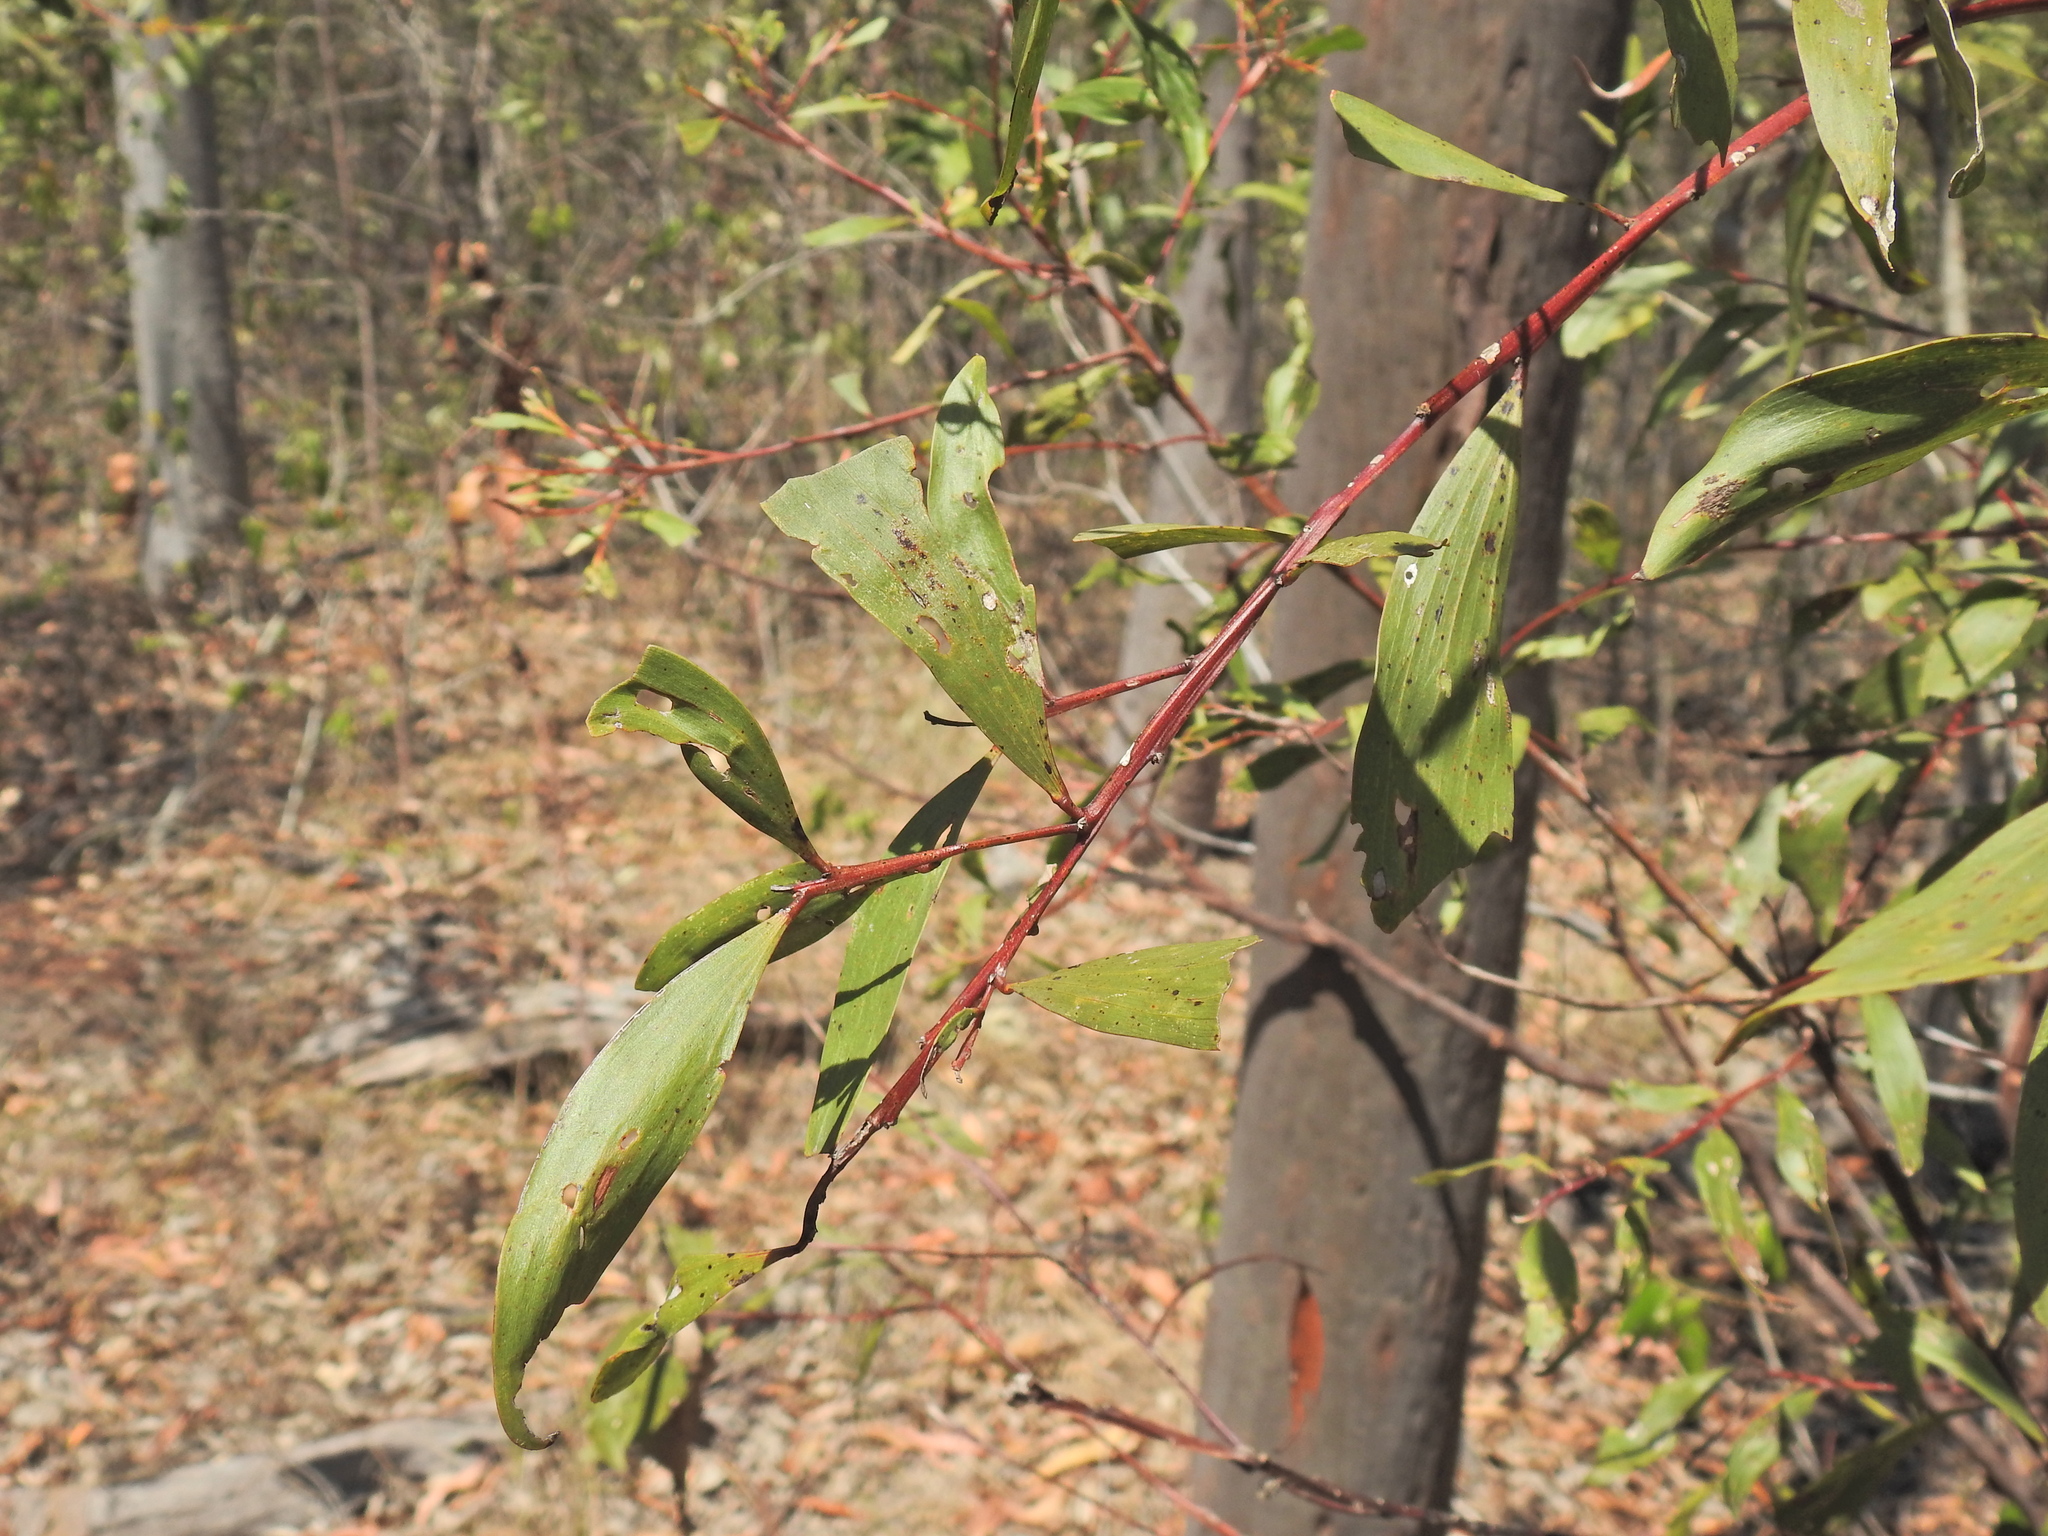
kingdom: Plantae
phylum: Tracheophyta
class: Magnoliopsida
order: Fabales
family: Fabaceae
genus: Acacia
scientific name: Acacia leiocalyx
